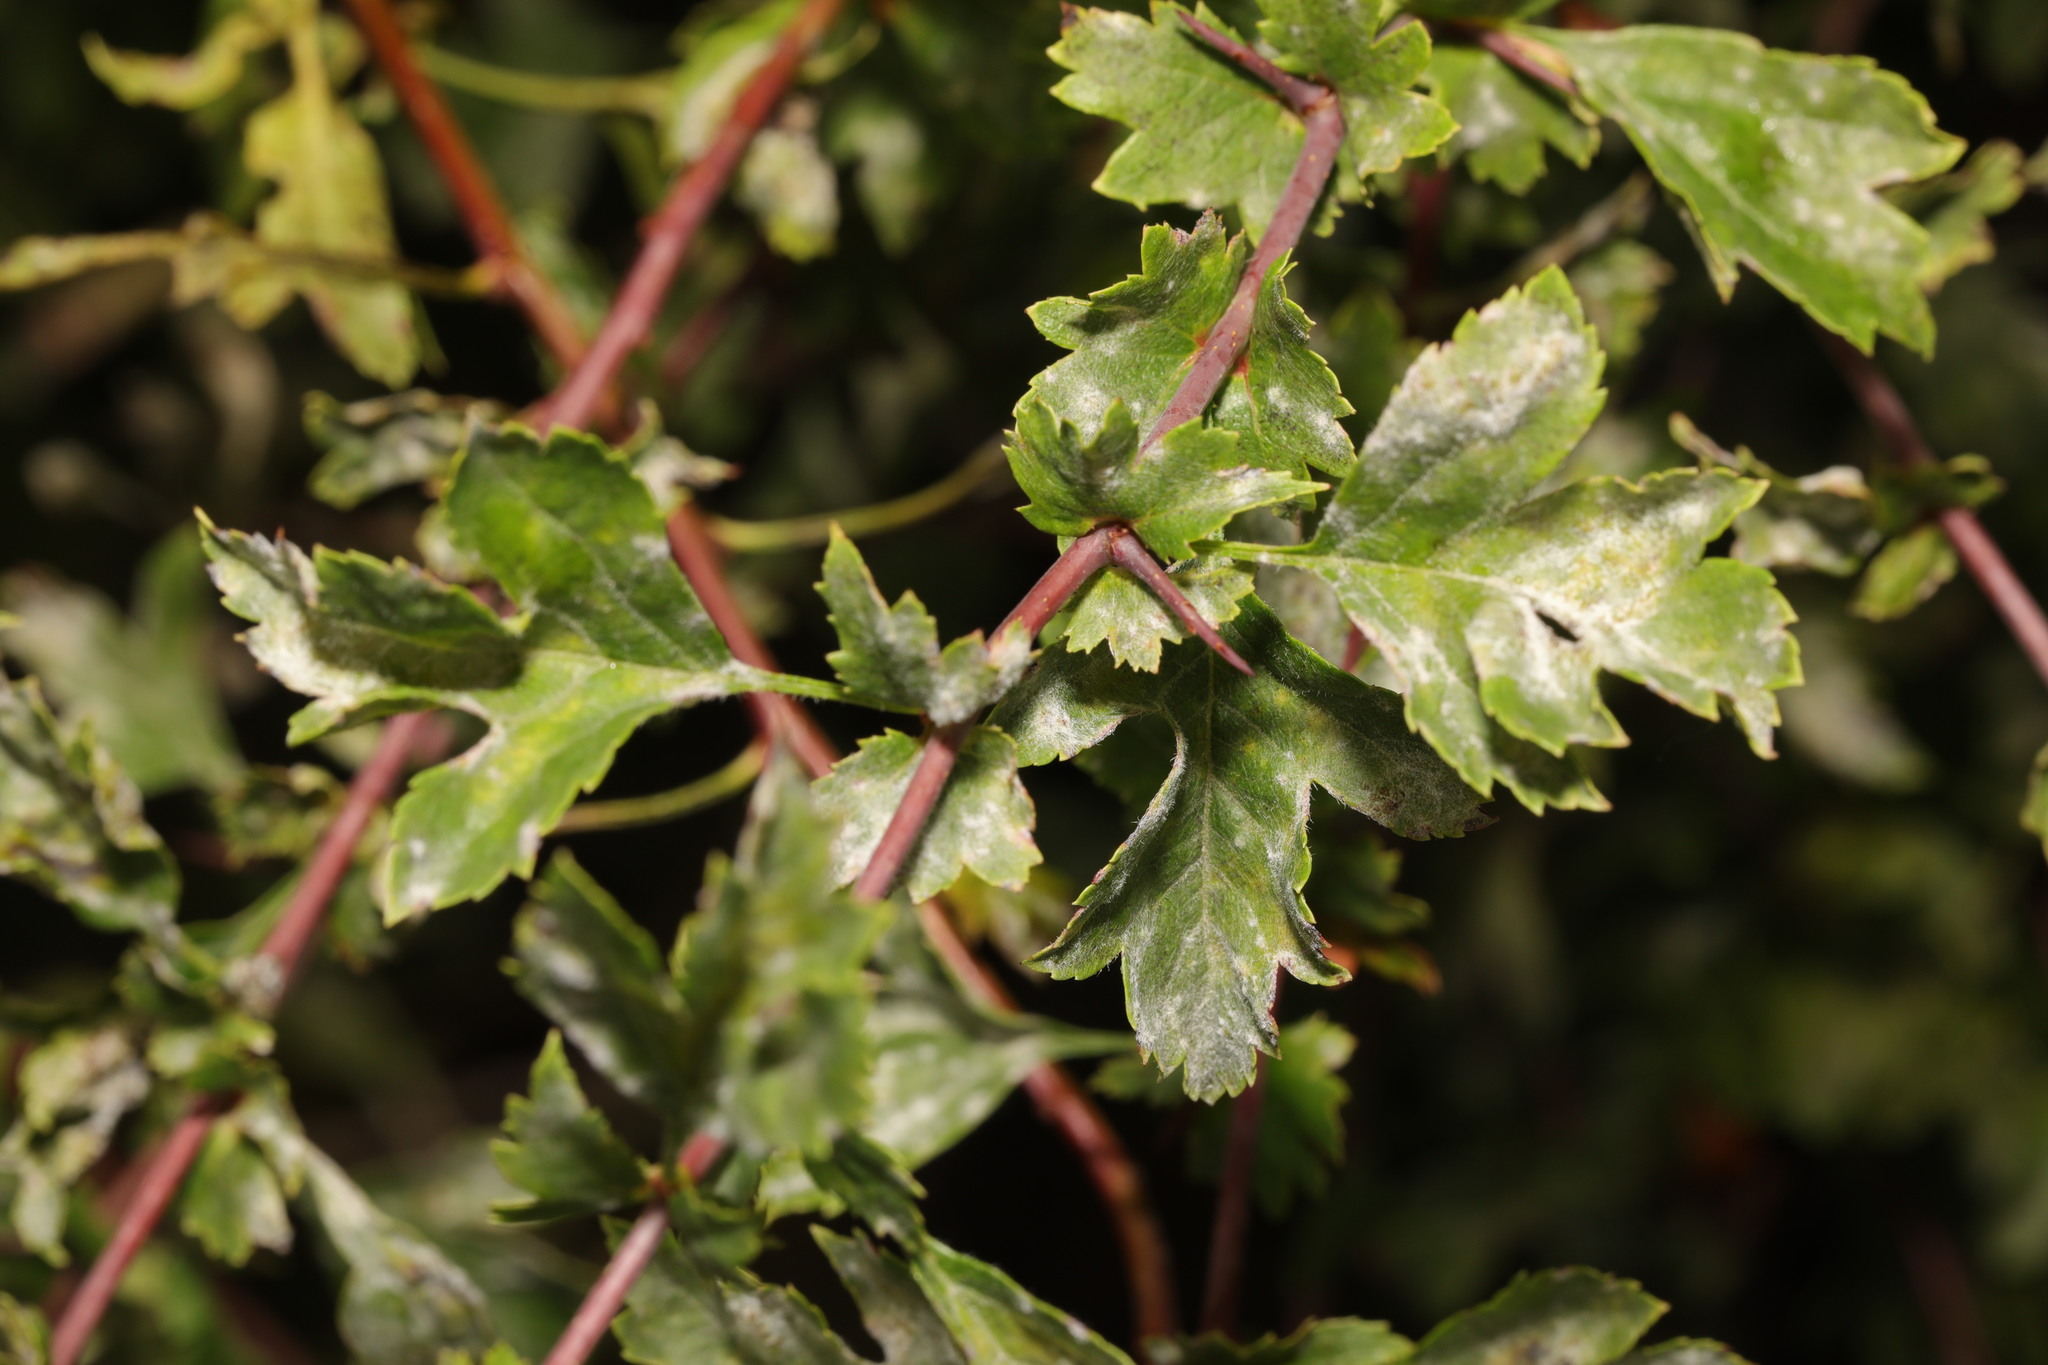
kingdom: Fungi
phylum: Ascomycota
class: Leotiomycetes
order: Helotiales
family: Erysiphaceae
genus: Podosphaera
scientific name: Podosphaera clandestina
